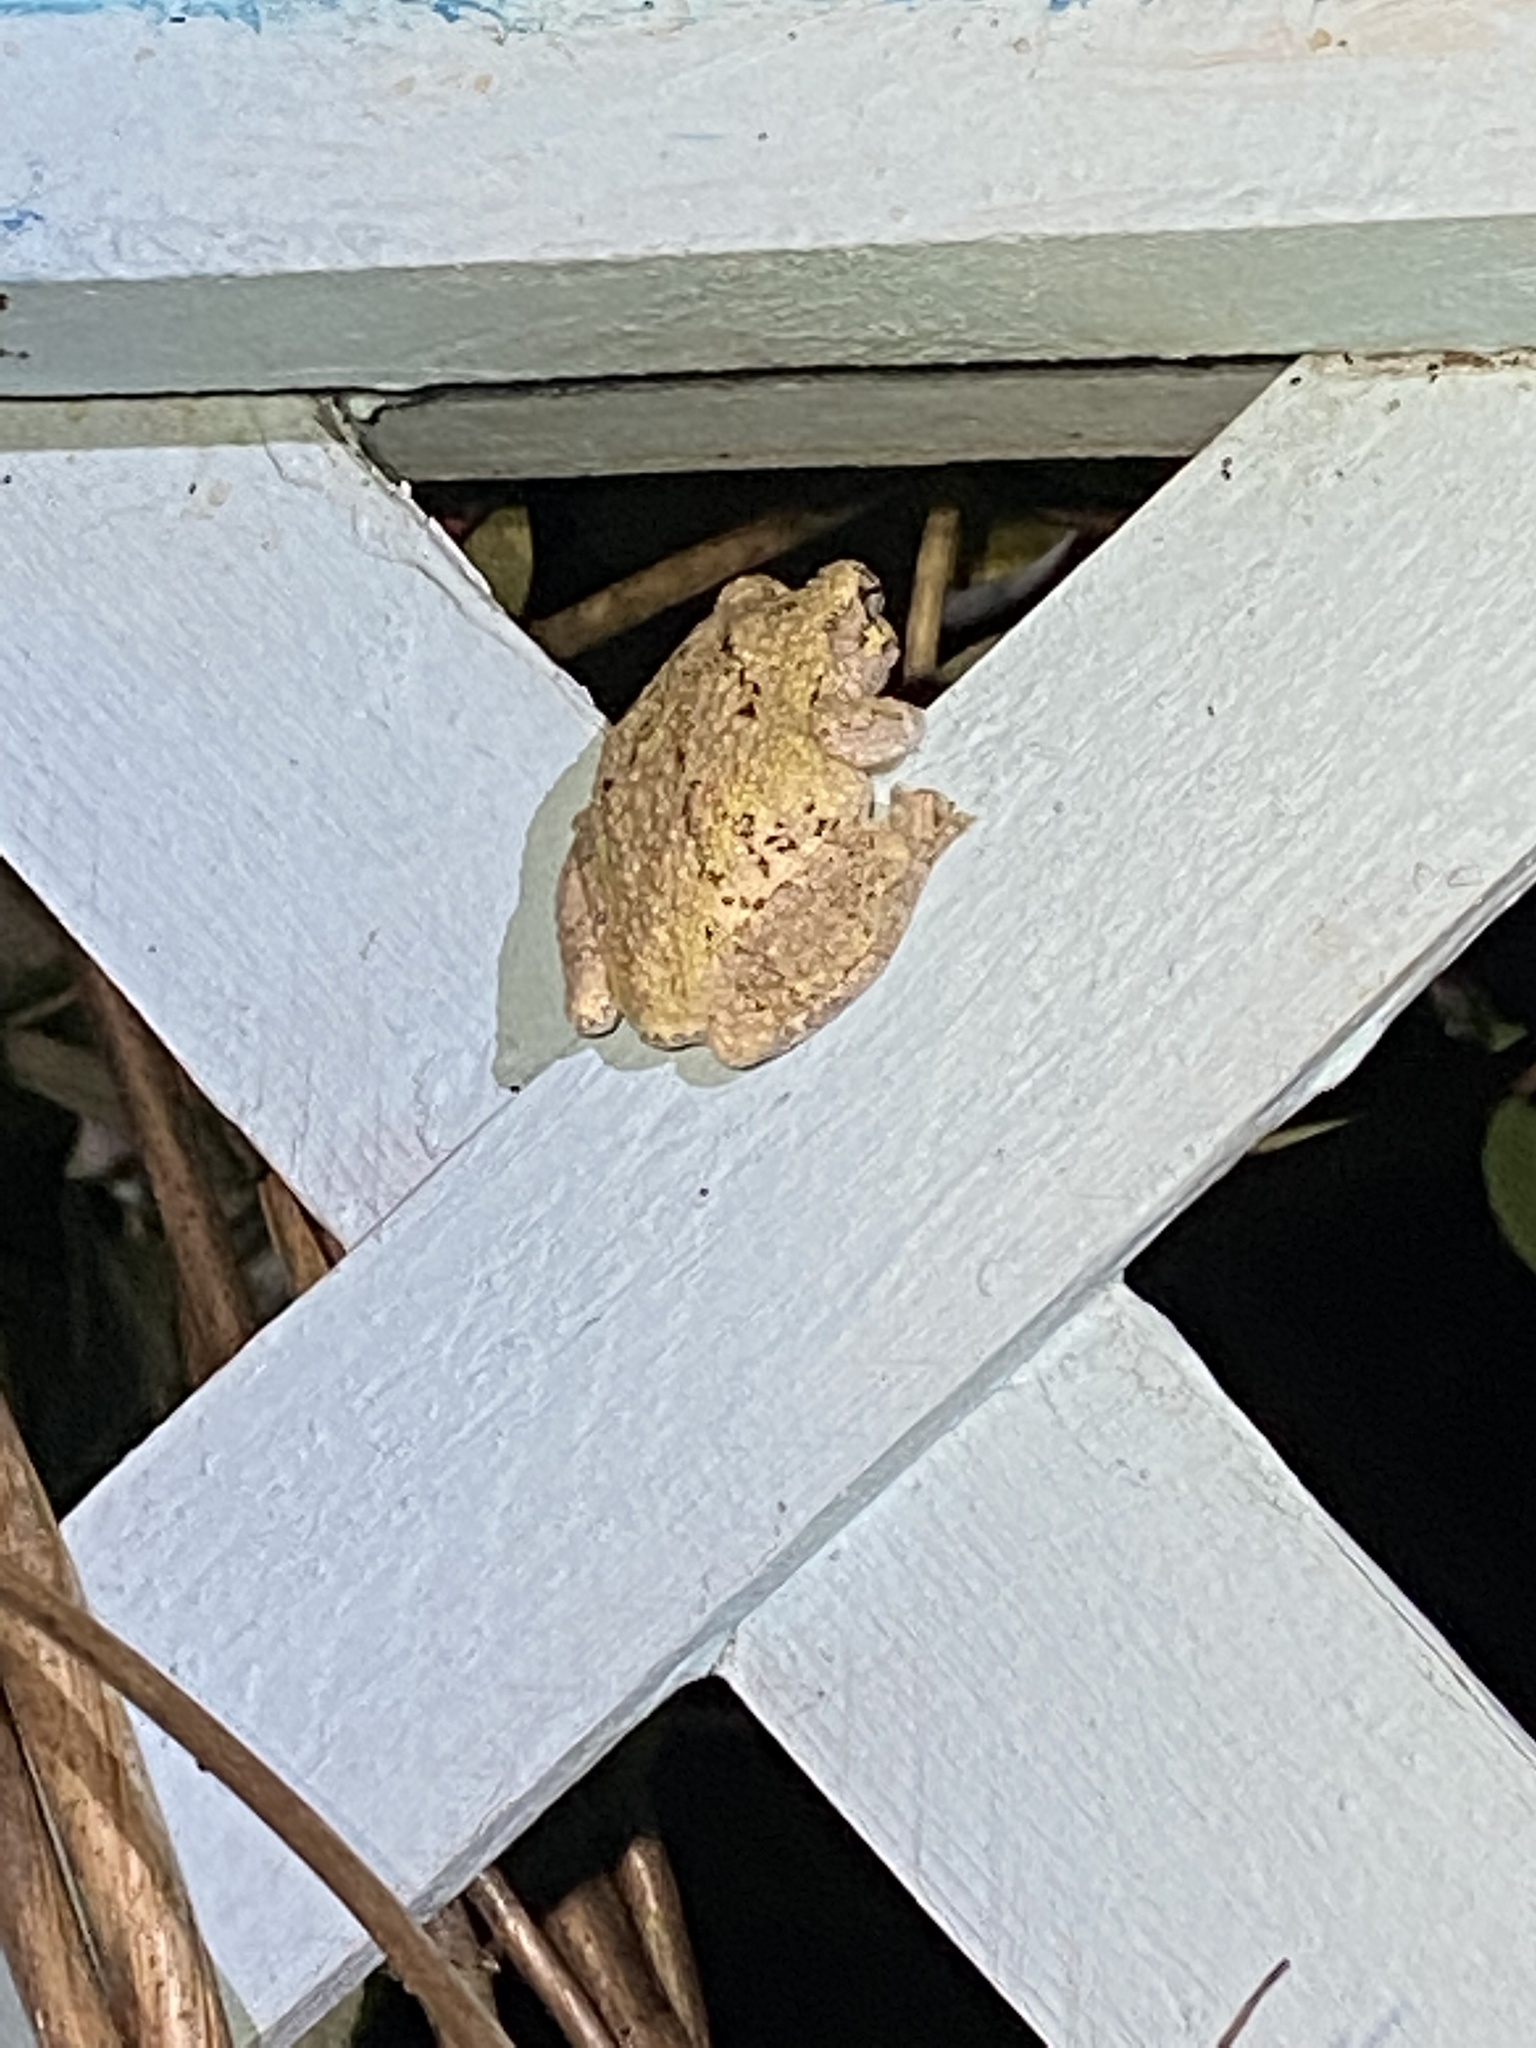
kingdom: Animalia
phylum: Chordata
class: Amphibia
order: Anura
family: Hylidae
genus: Dryophytes
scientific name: Dryophytes chrysoscelis
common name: Cope's gray treefrog
